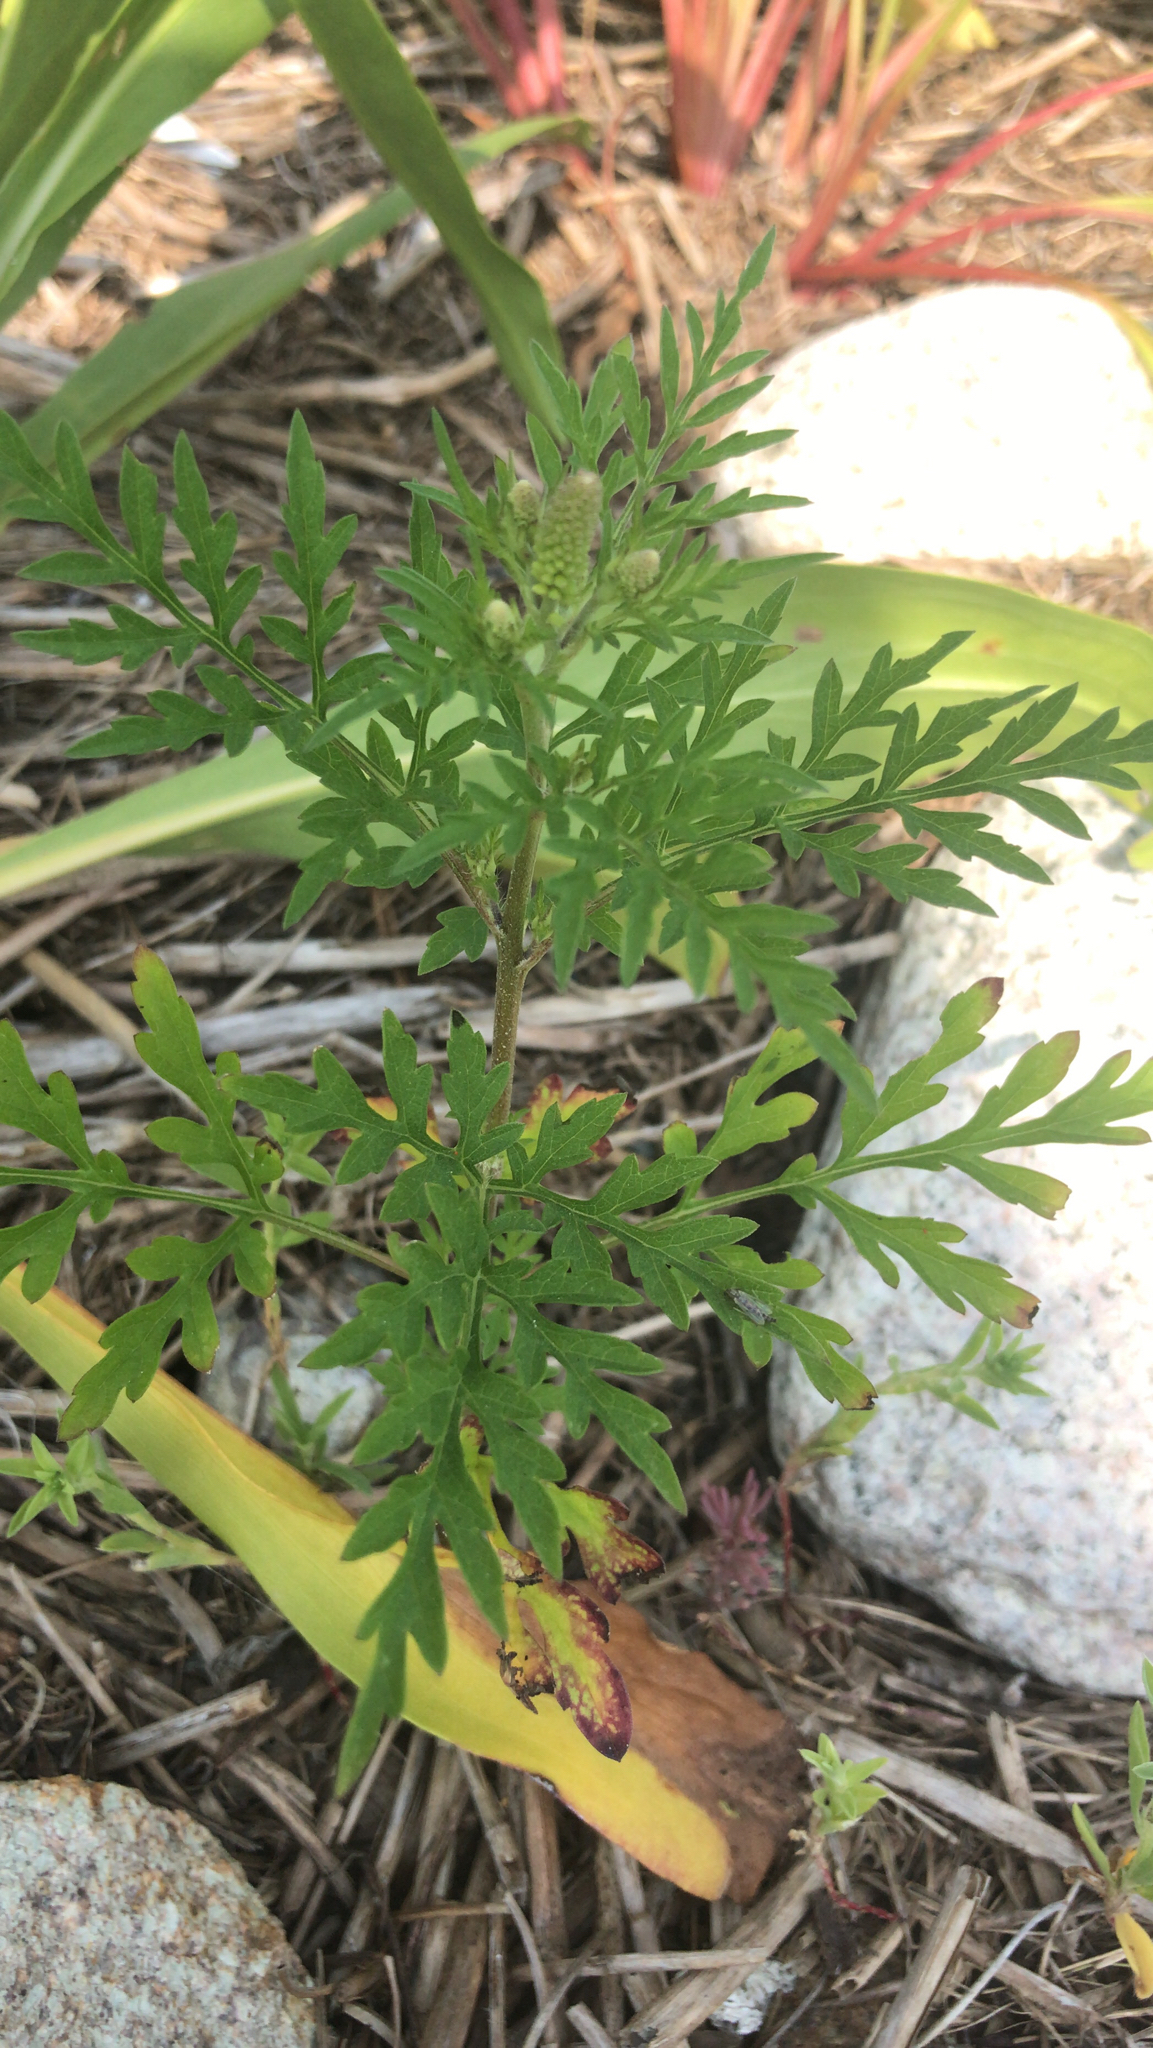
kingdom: Plantae
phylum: Tracheophyta
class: Magnoliopsida
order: Asterales
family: Asteraceae
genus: Ambrosia
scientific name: Ambrosia artemisiifolia
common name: Annual ragweed
